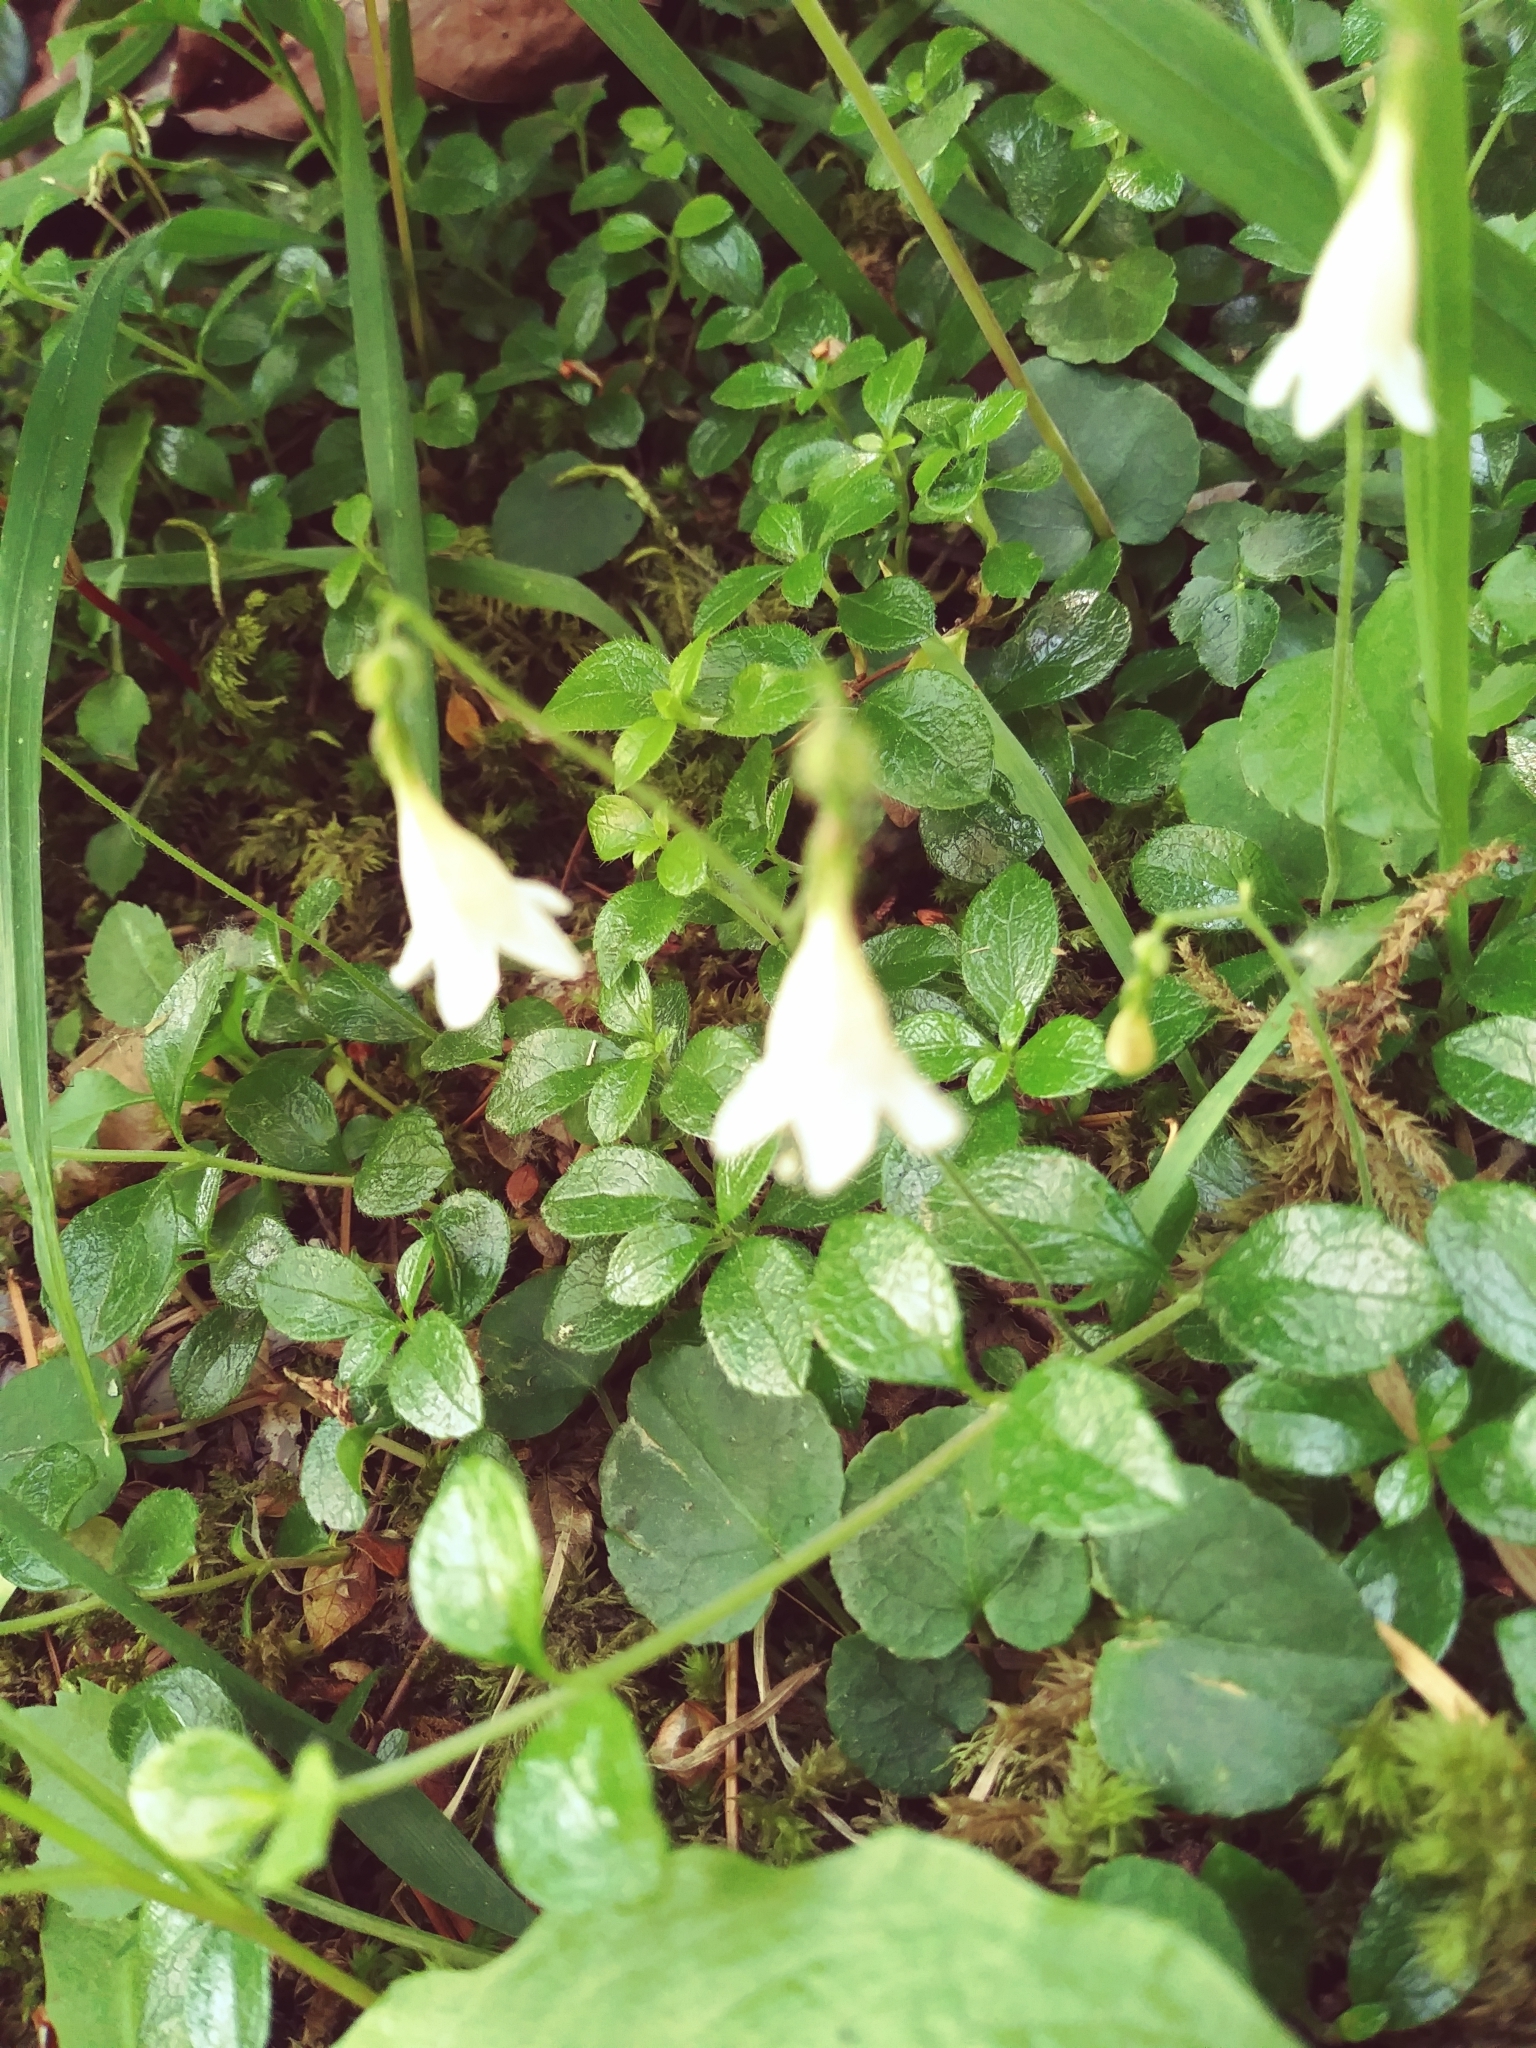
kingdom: Plantae
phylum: Tracheophyta
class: Magnoliopsida
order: Dipsacales
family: Caprifoliaceae
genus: Linnaea
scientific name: Linnaea borealis
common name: Twinflower
